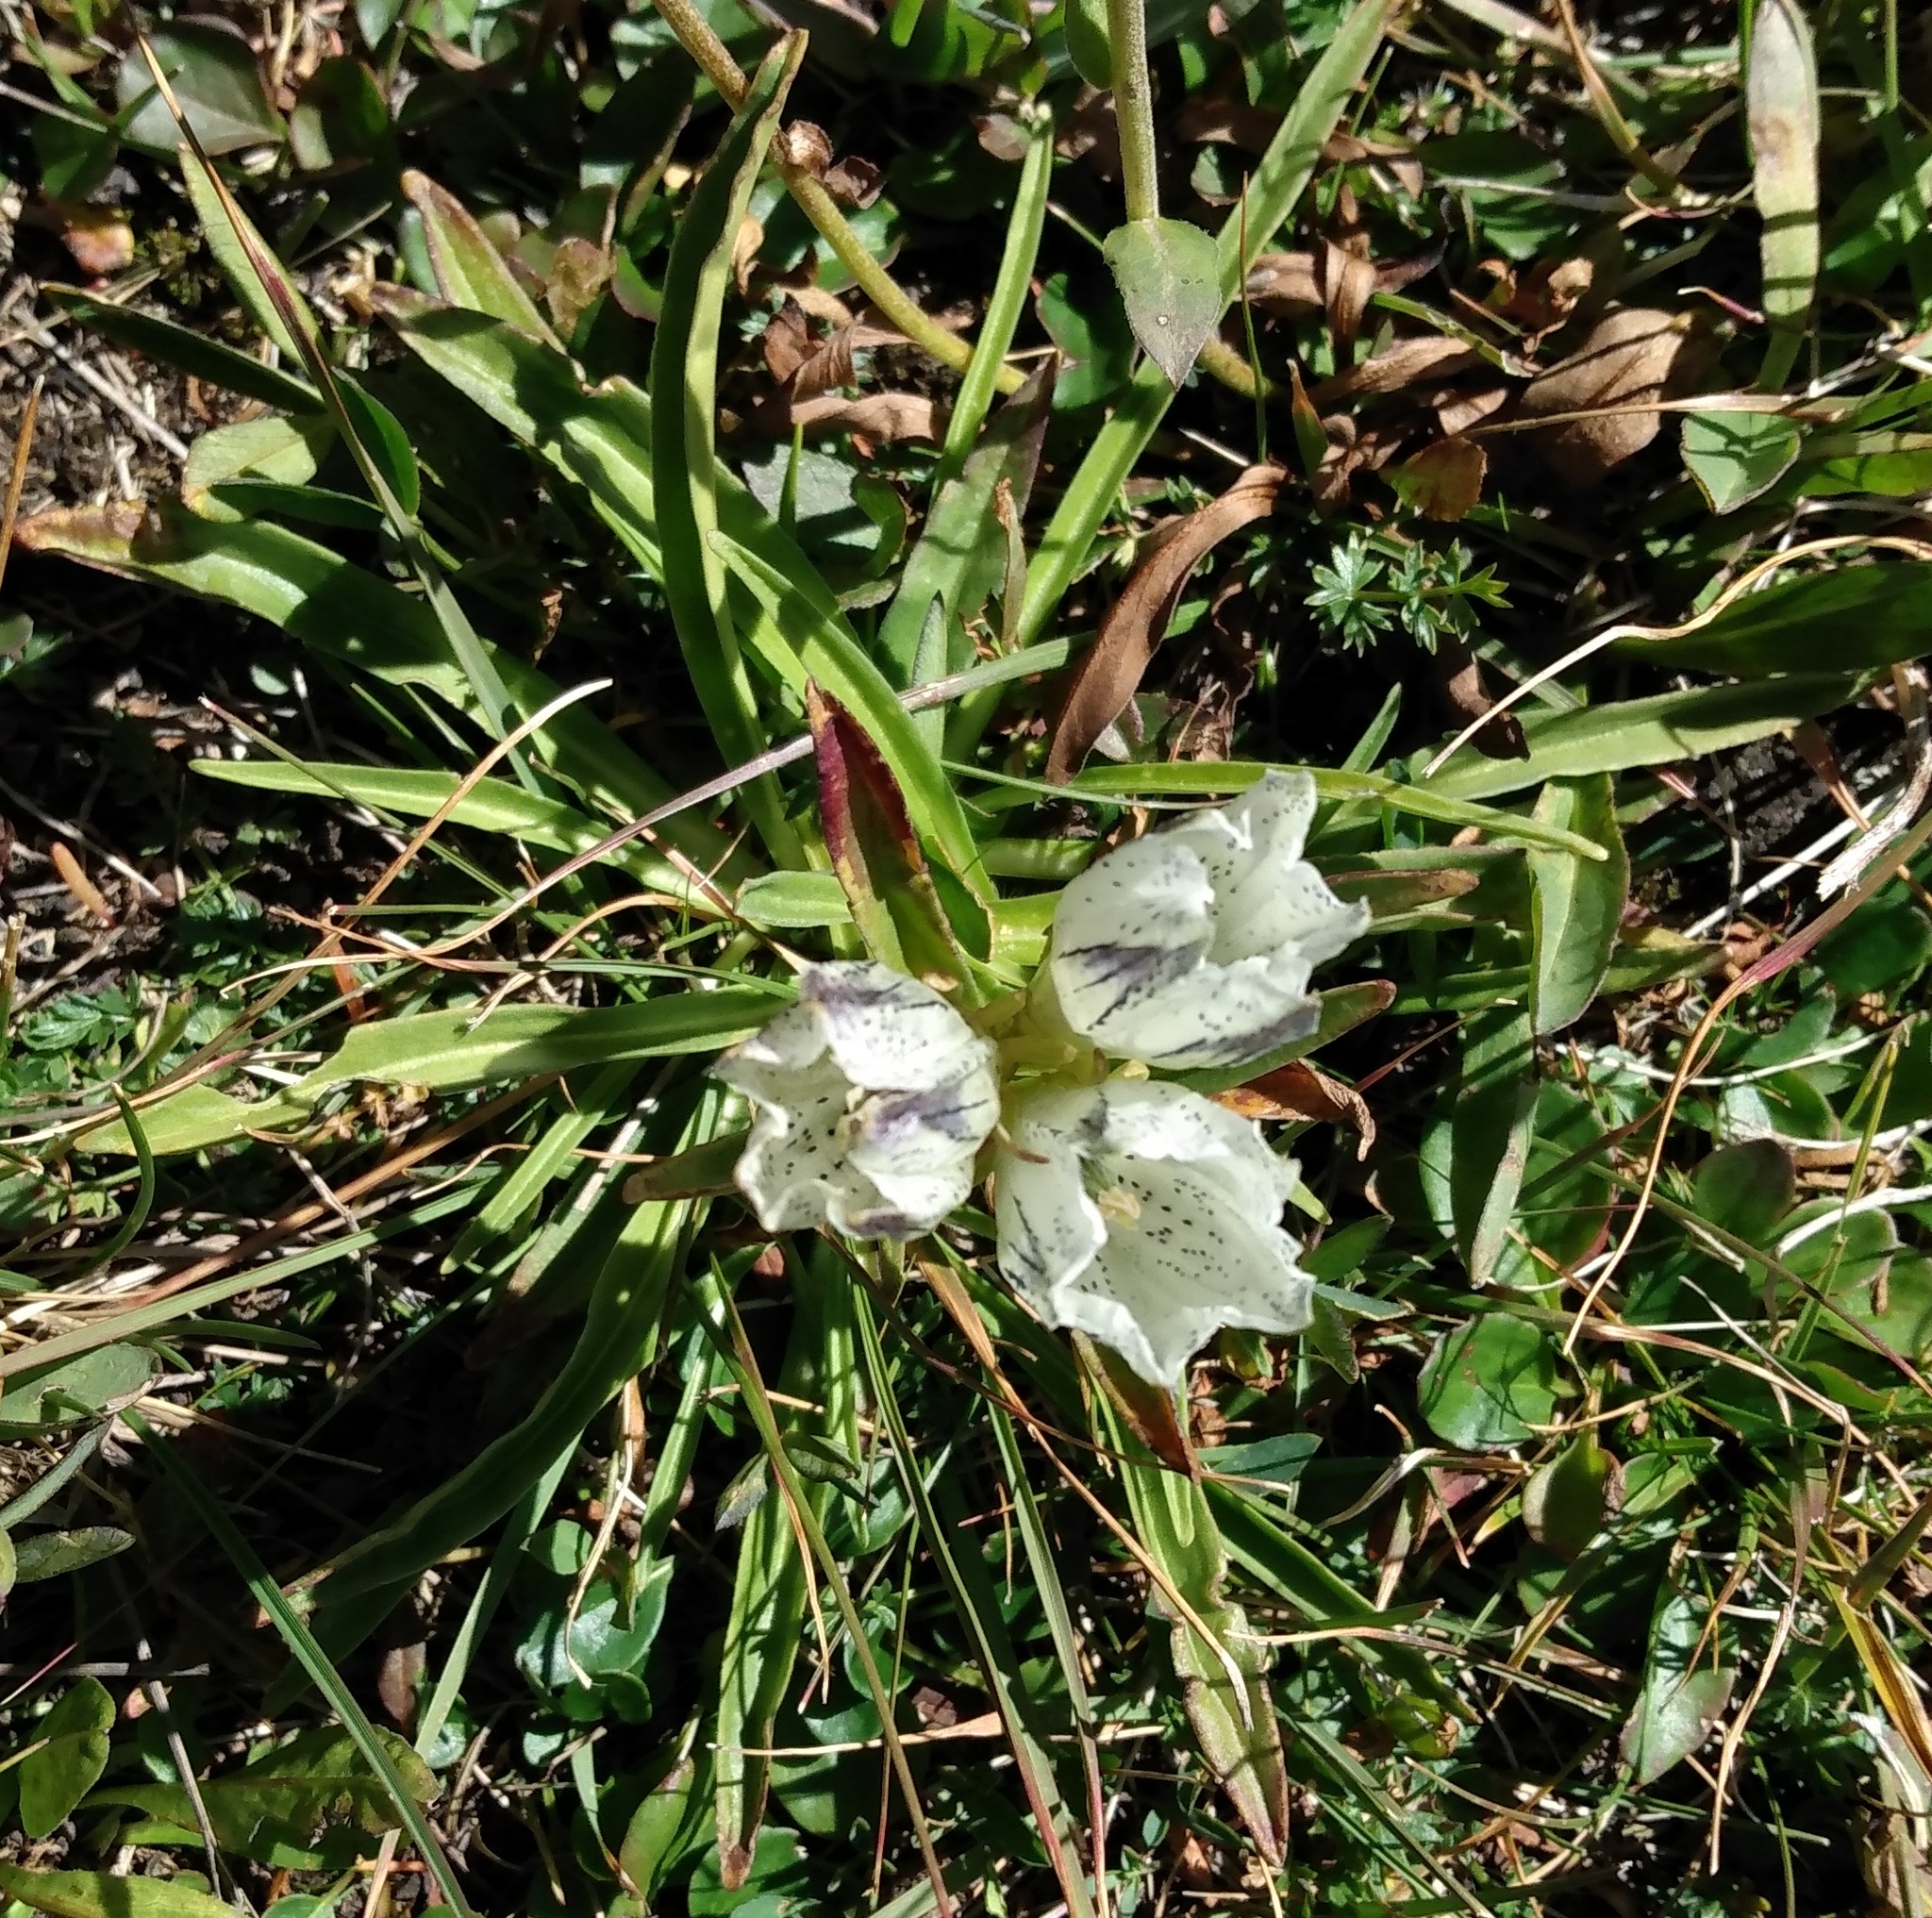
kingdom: Plantae
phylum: Tracheophyta
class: Magnoliopsida
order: Gentianales
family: Gentianaceae
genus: Gentiana
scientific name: Gentiana algida
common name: Arctic gentian
